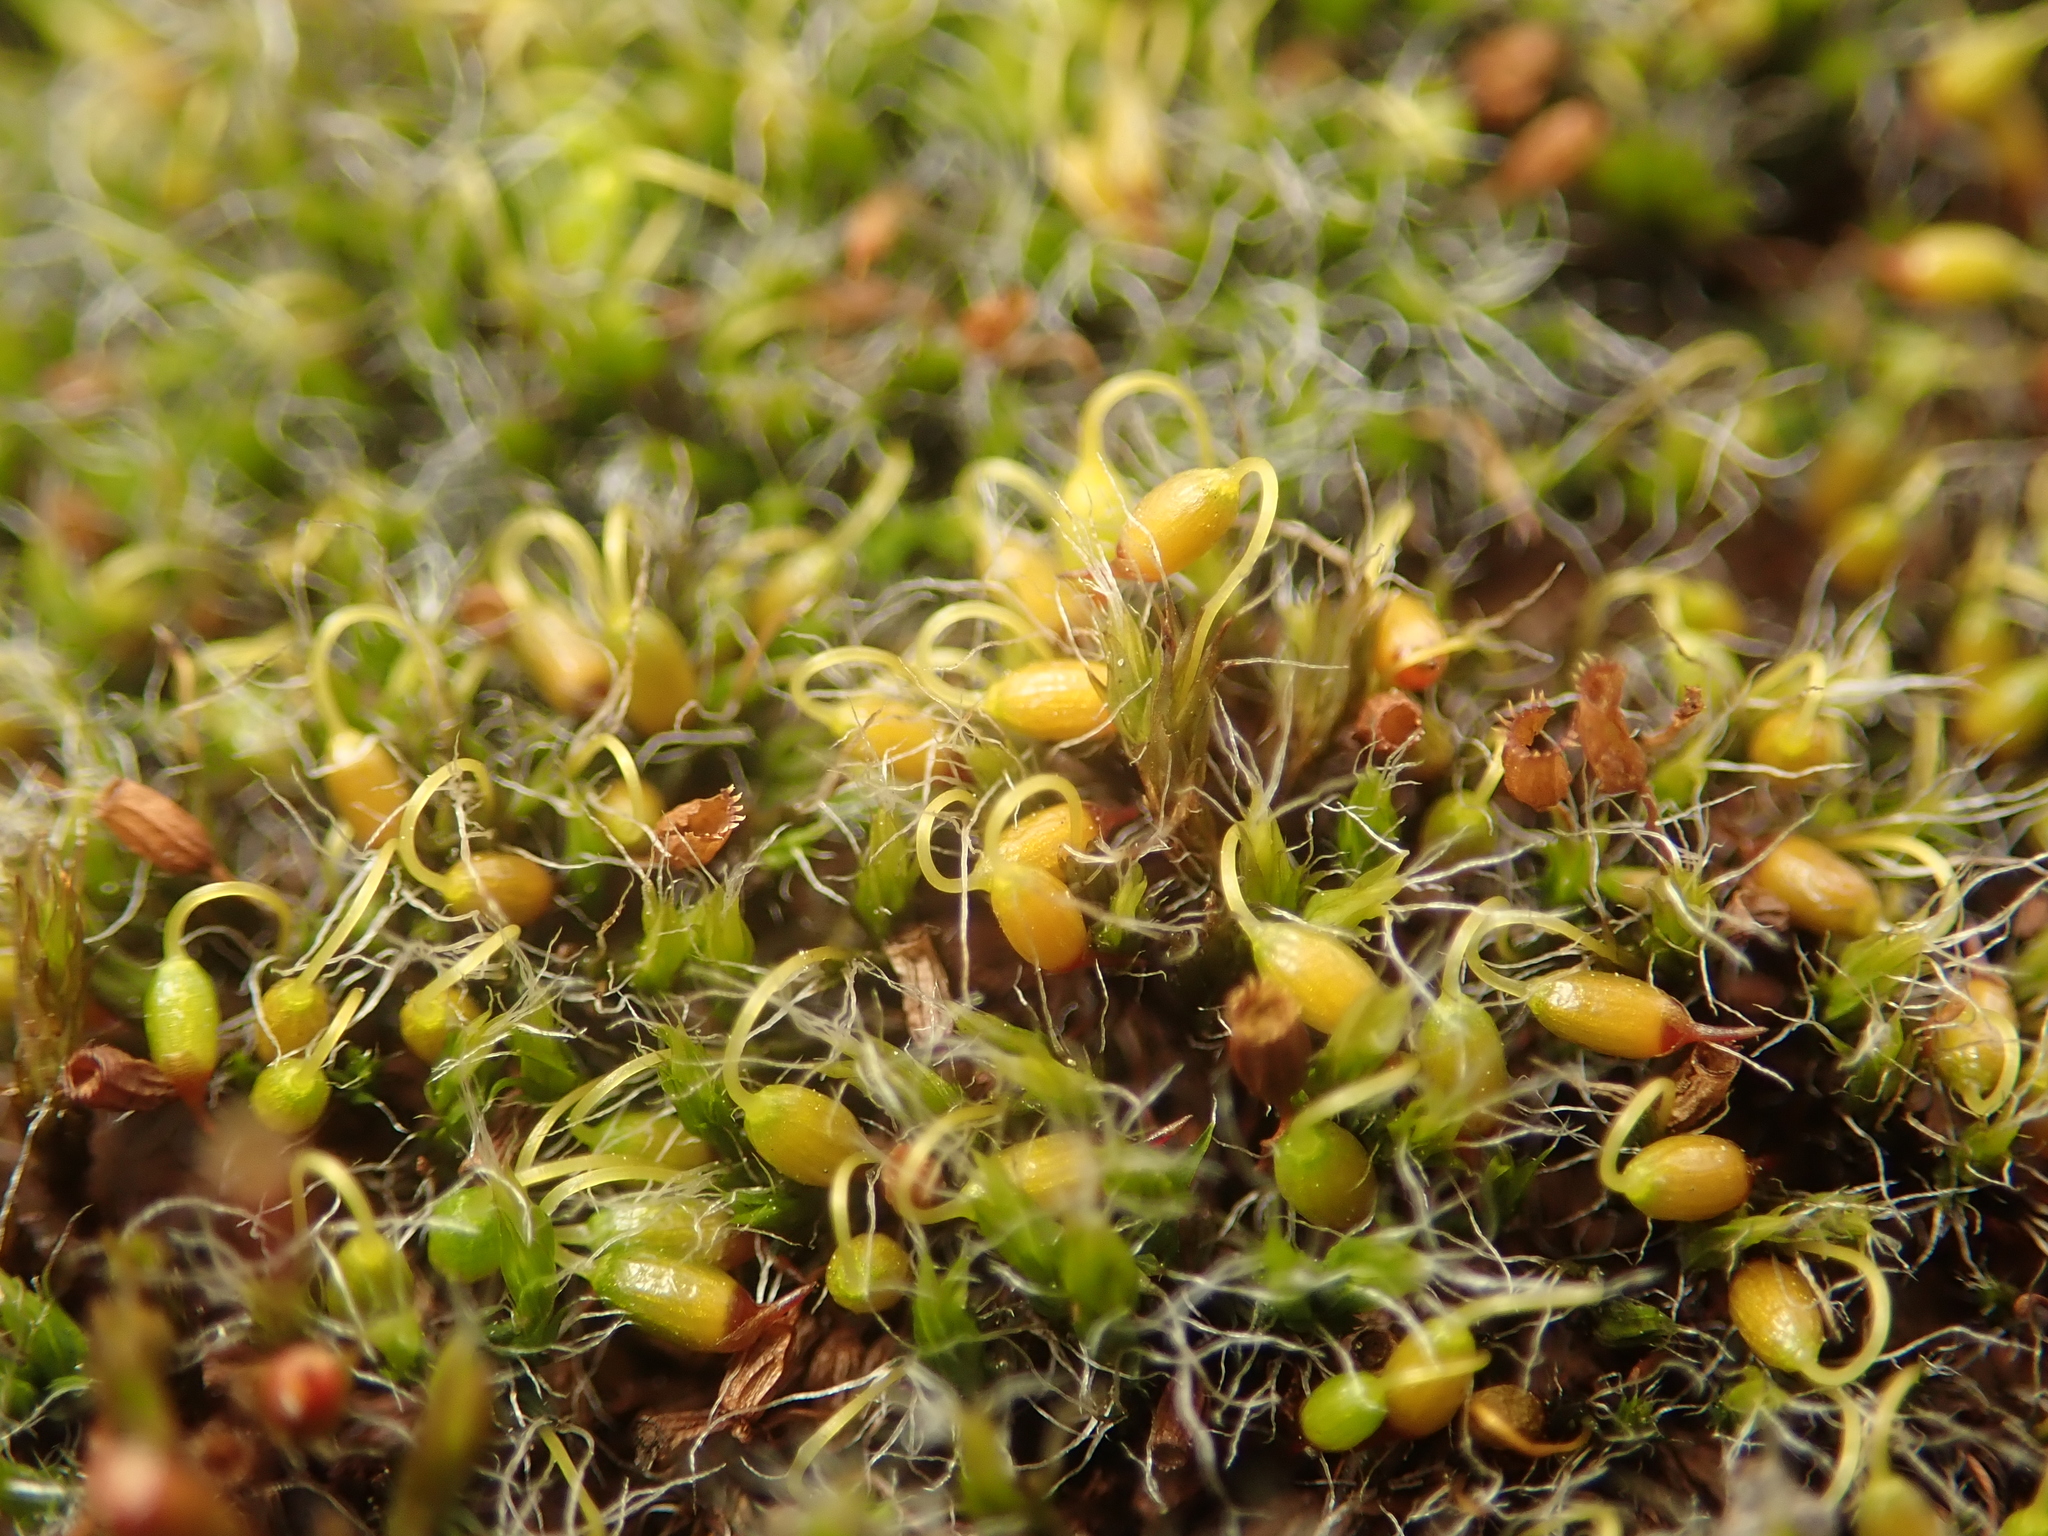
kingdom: Plantae
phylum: Bryophyta
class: Bryopsida
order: Grimmiales
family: Grimmiaceae
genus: Grimmia
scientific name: Grimmia pulvinata
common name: Grey-cushioned grimmia
